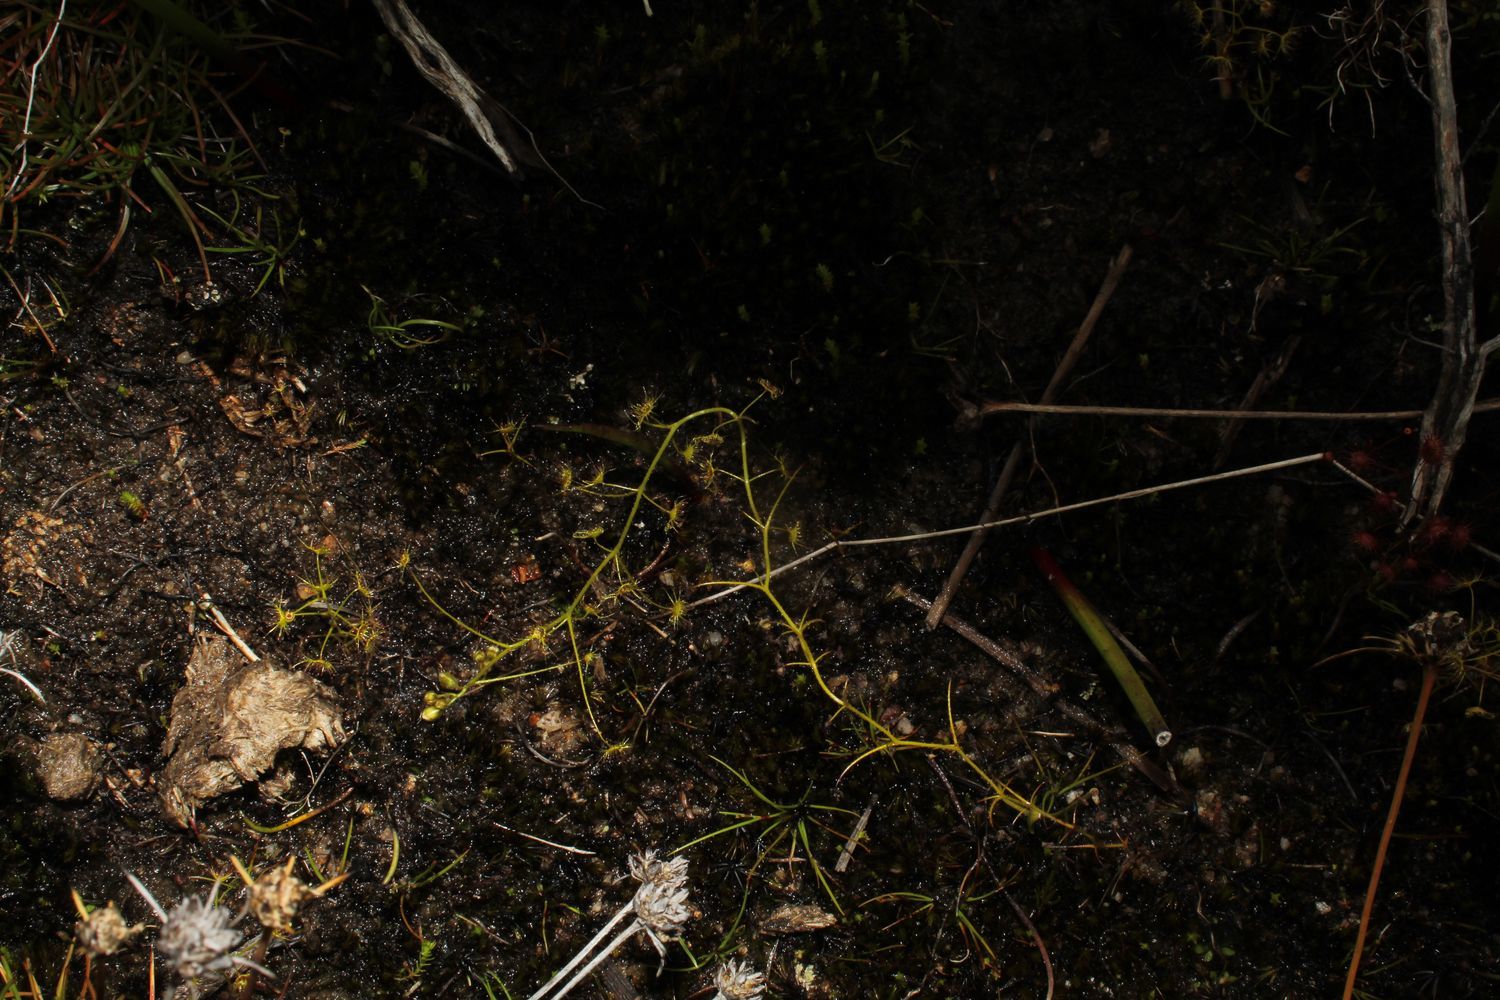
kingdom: Plantae
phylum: Tracheophyta
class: Magnoliopsida
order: Caryophyllales
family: Droseraceae
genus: Drosera
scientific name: Drosera modesta
